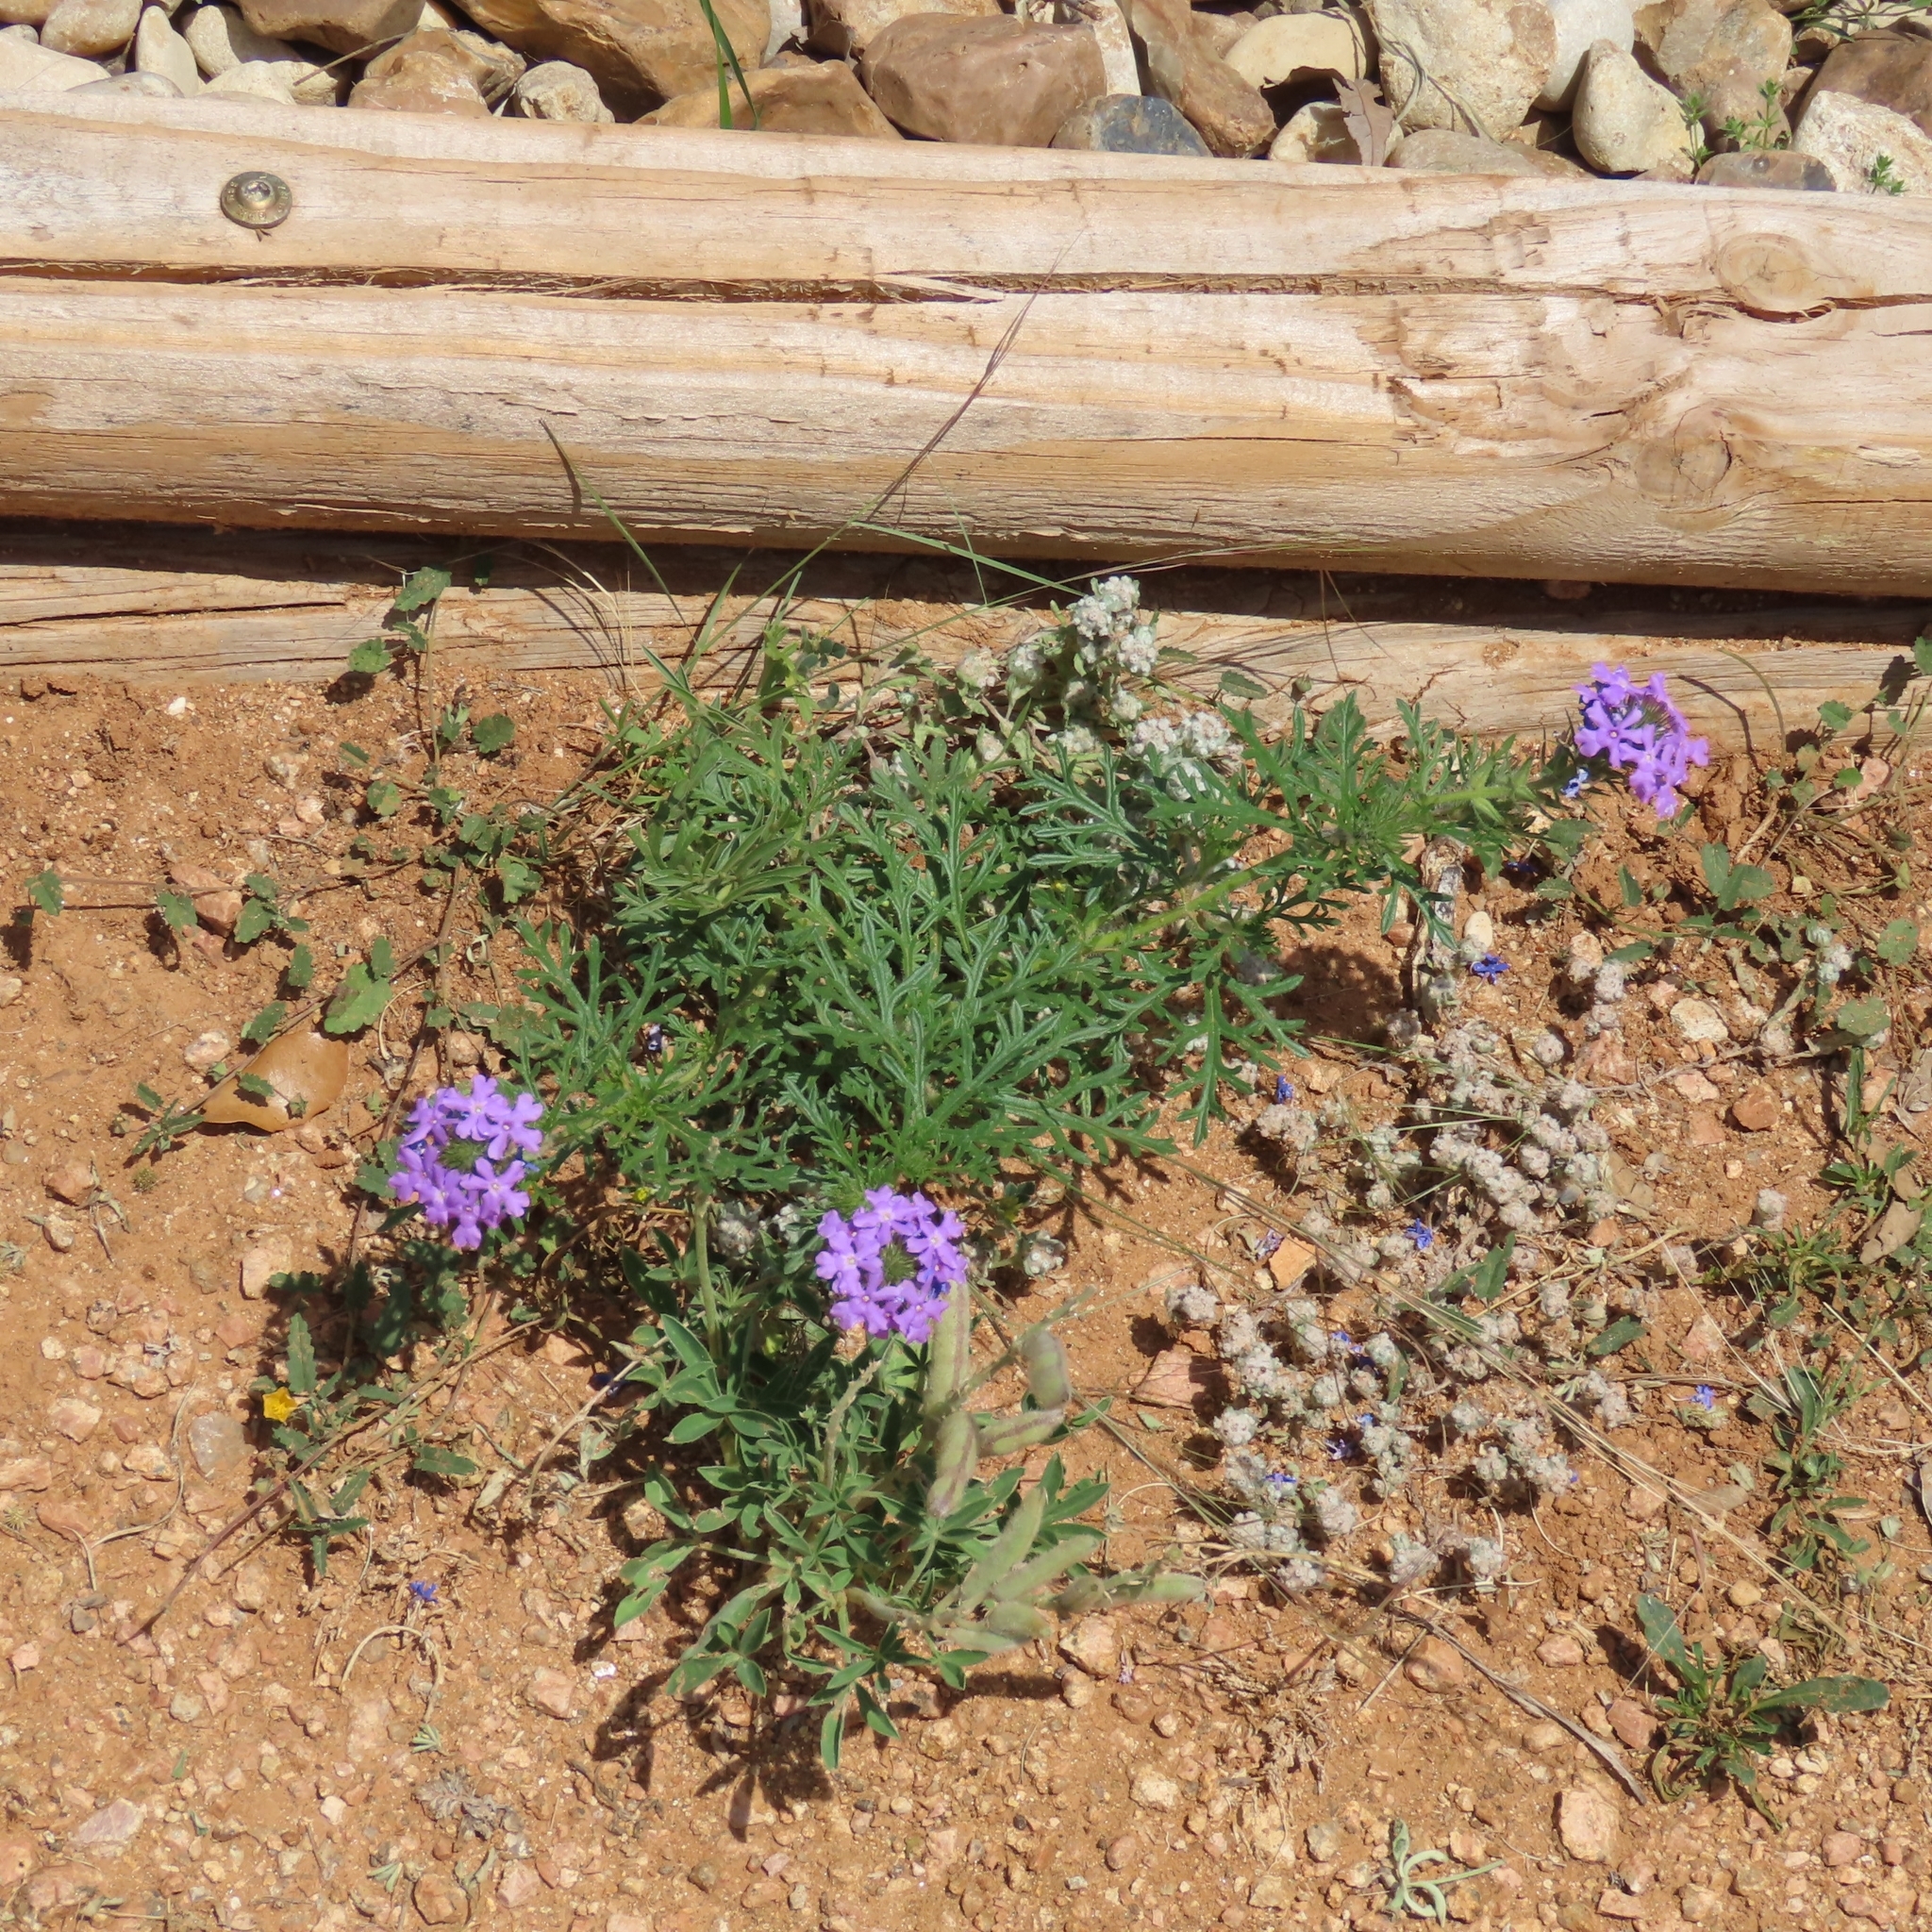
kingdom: Plantae
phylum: Tracheophyta
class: Magnoliopsida
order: Lamiales
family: Verbenaceae
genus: Verbena
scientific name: Verbena bipinnatifida
